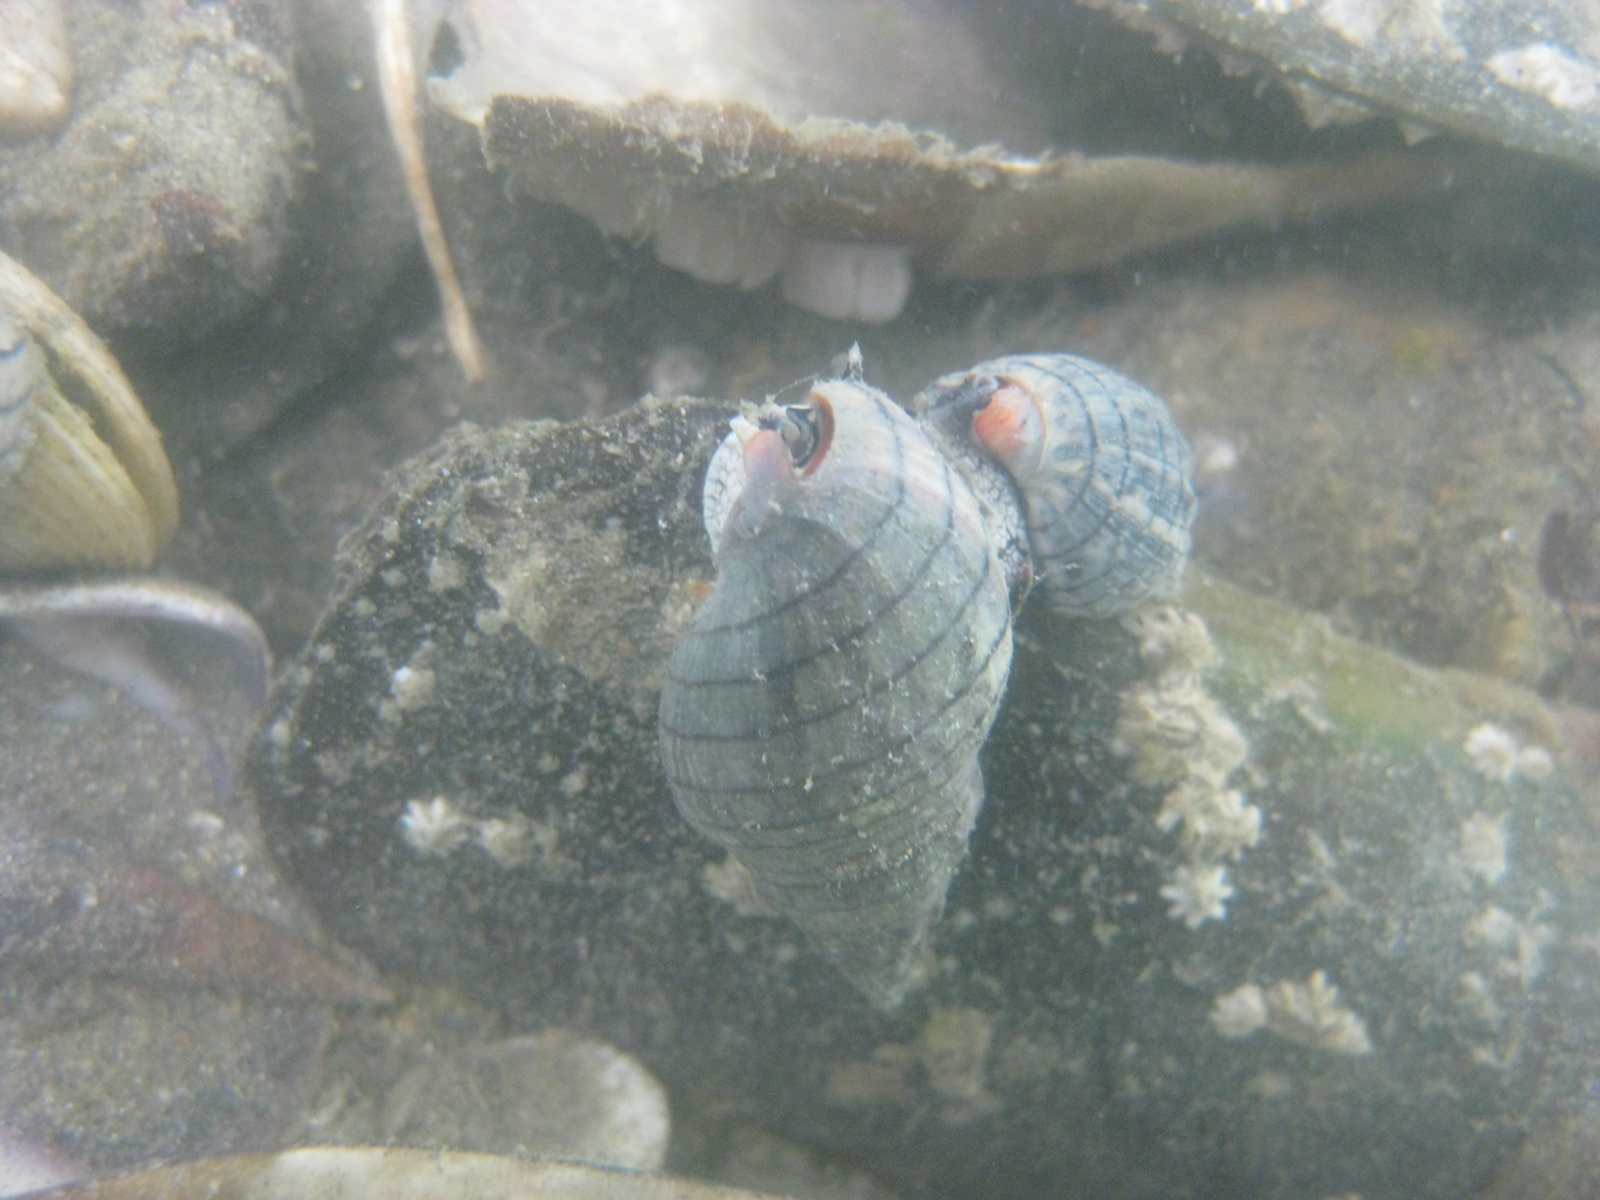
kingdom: Animalia
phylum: Mollusca
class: Gastropoda
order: Neogastropoda
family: Cominellidae
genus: Cominella
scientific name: Cominella virgata
